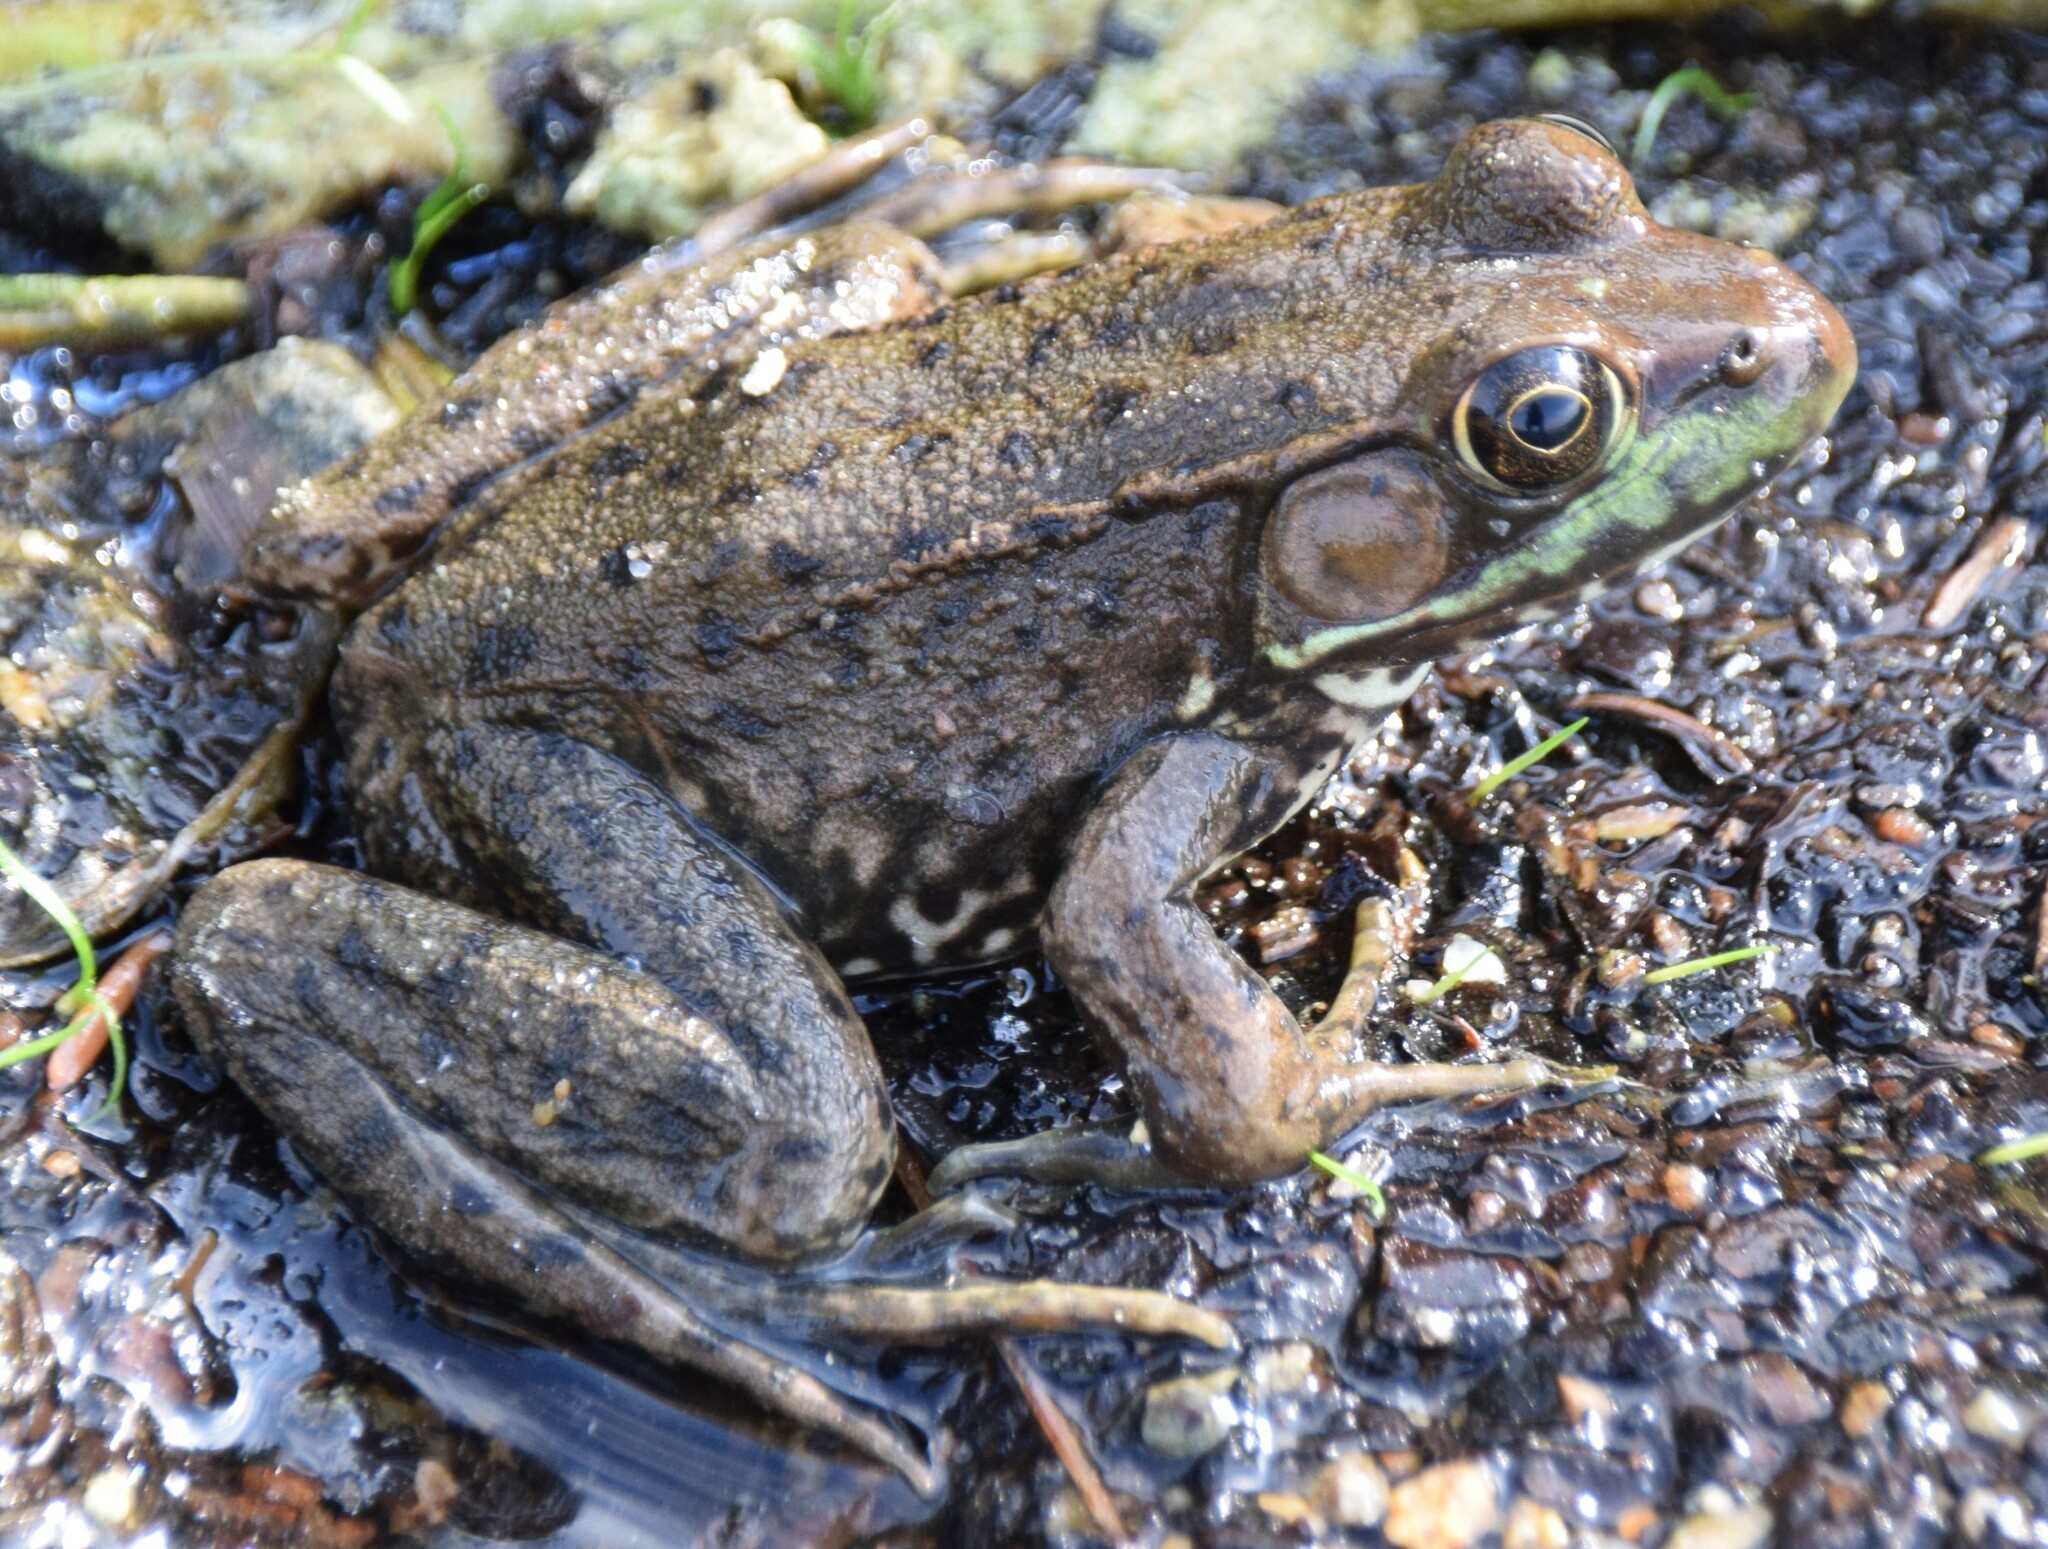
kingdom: Animalia
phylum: Chordata
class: Amphibia
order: Anura
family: Ranidae
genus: Lithobates
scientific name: Lithobates clamitans
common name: Green frog
